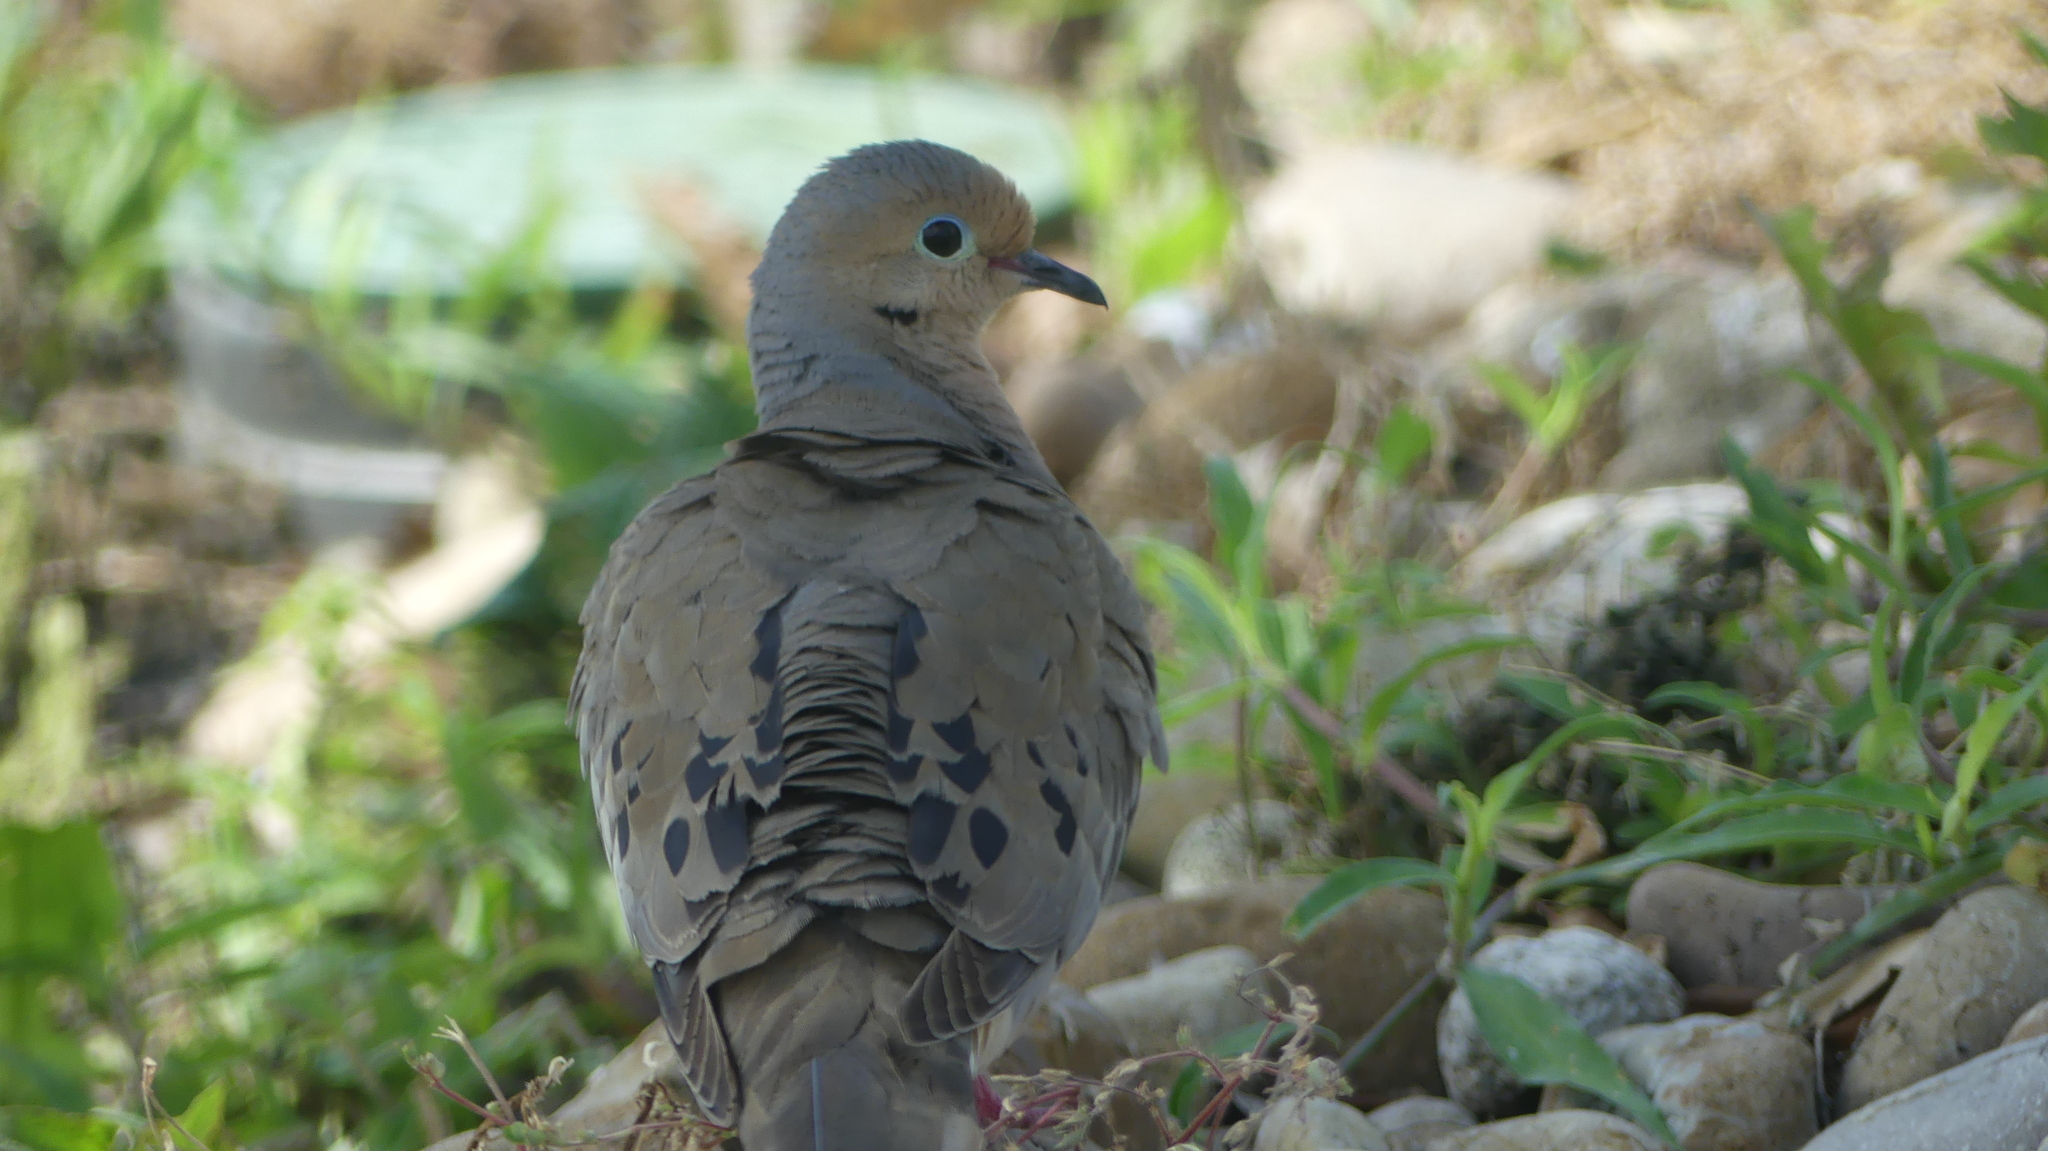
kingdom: Animalia
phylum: Chordata
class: Aves
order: Columbiformes
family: Columbidae
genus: Zenaida
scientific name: Zenaida macroura
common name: Mourning dove
